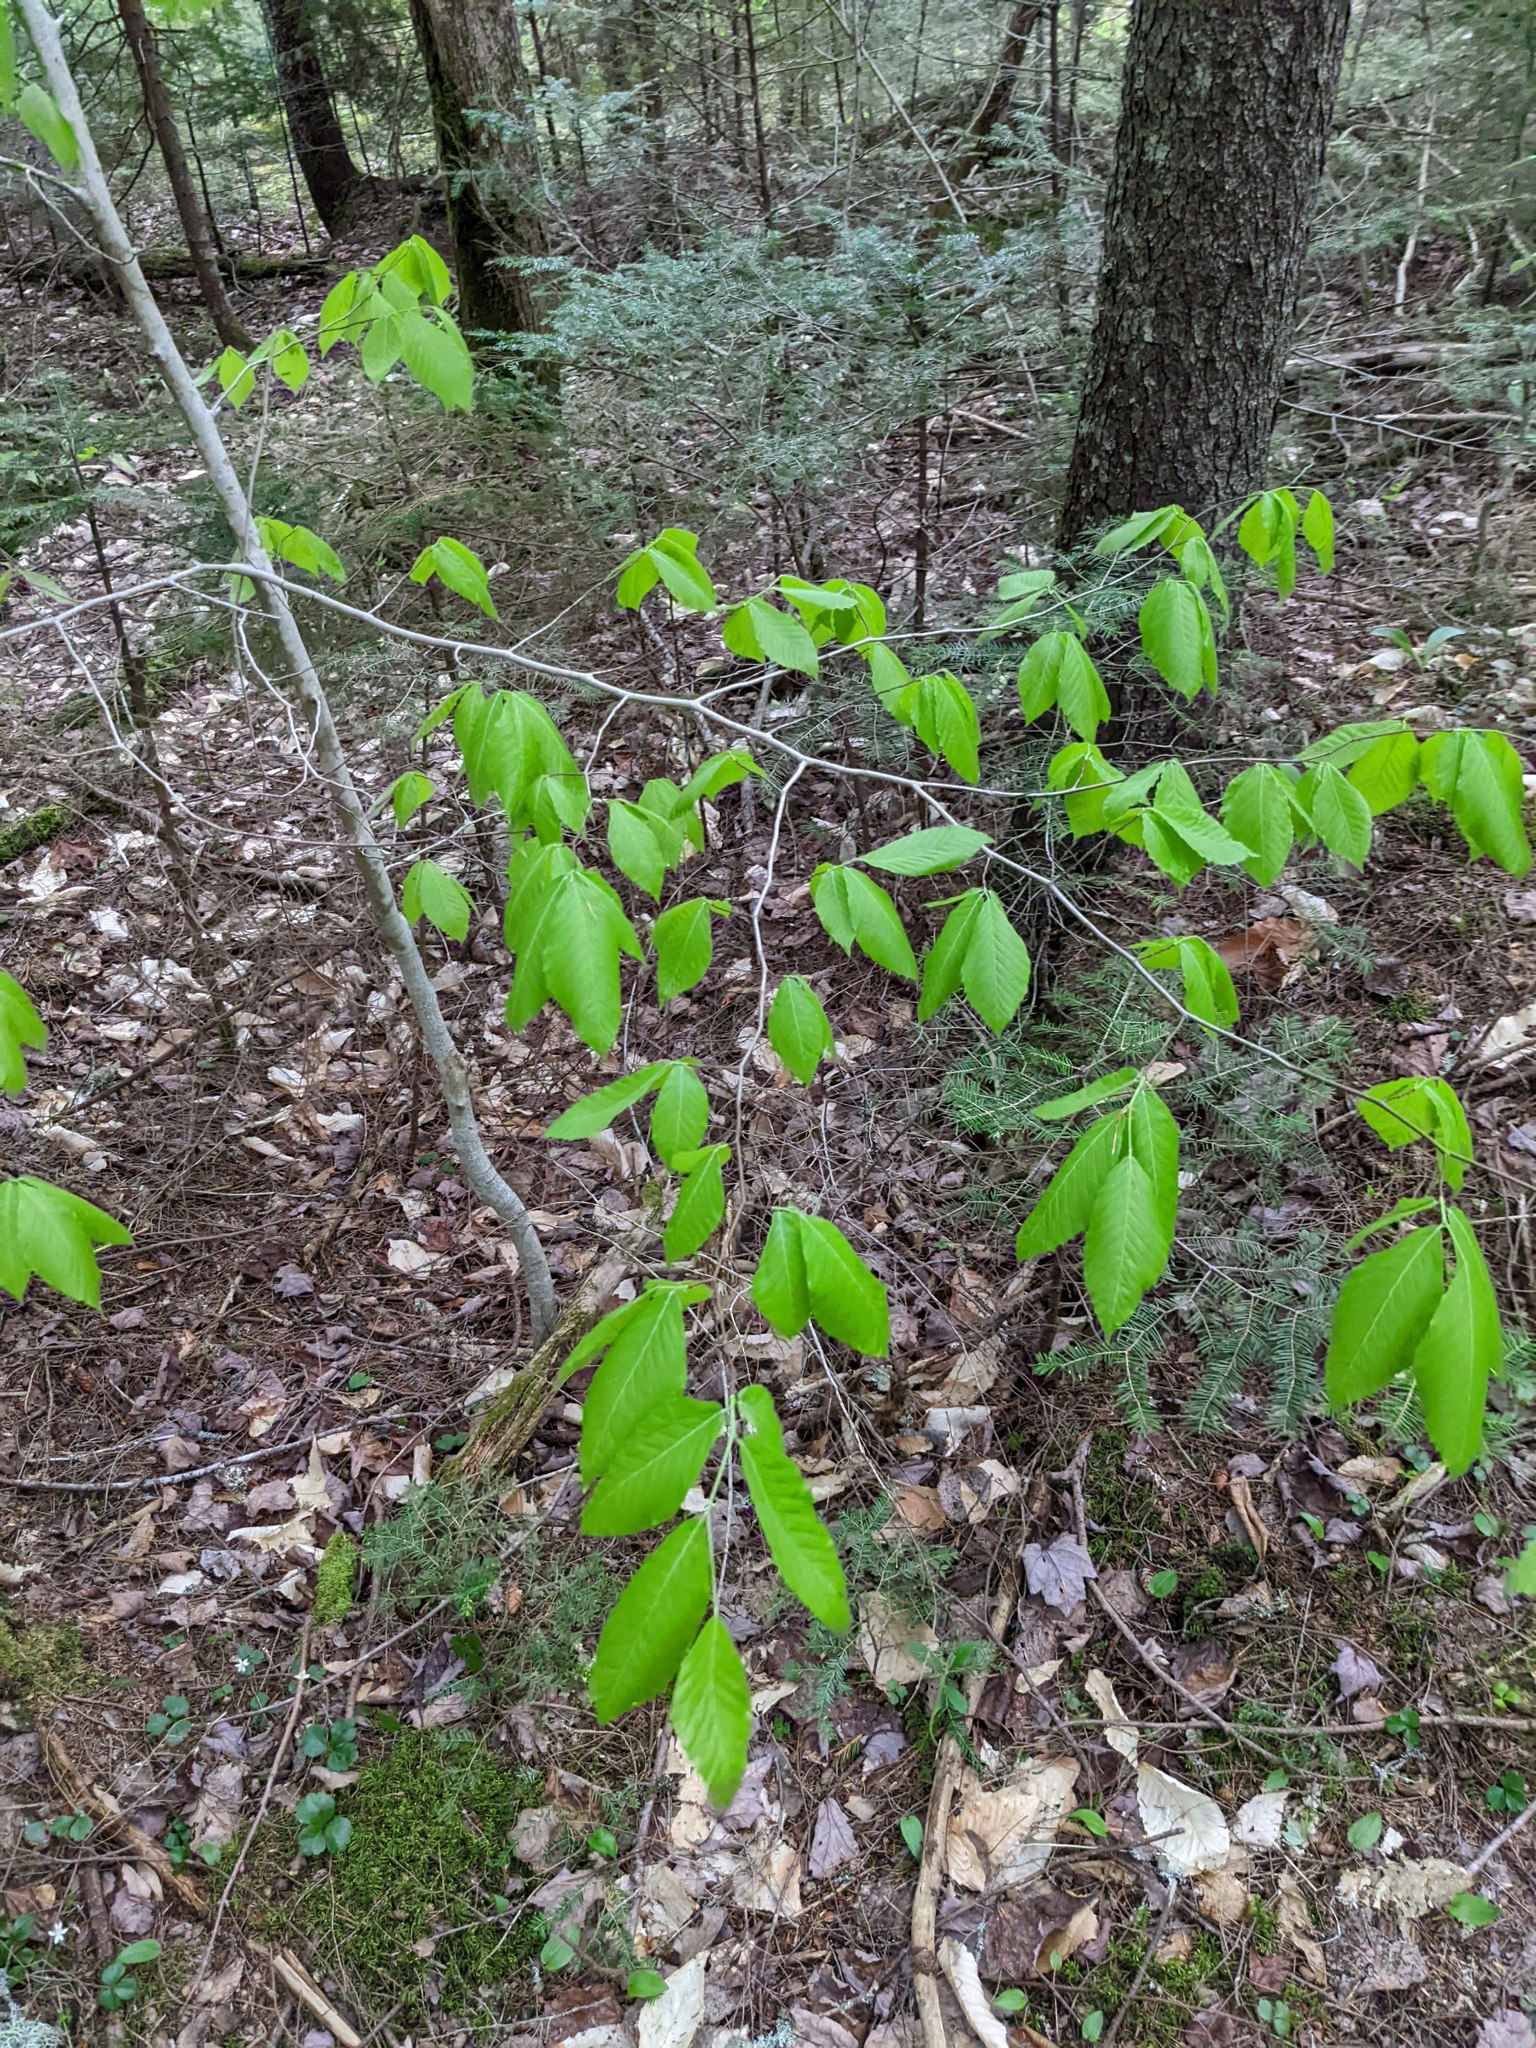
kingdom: Plantae
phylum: Tracheophyta
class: Magnoliopsida
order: Fagales
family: Fagaceae
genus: Fagus
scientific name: Fagus grandifolia
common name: American beech
